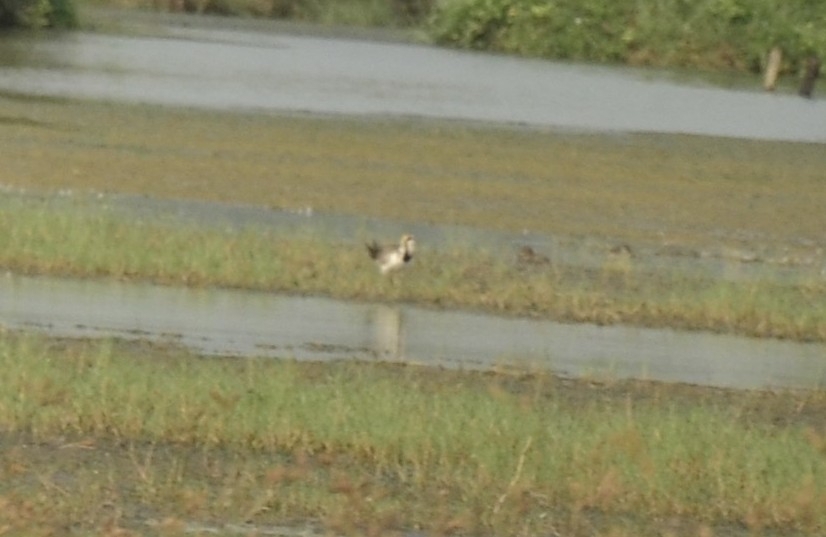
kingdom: Animalia
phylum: Chordata
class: Aves
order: Charadriiformes
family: Jacanidae
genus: Hydrophasianus
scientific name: Hydrophasianus chirurgus
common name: Pheasant-tailed jacana
